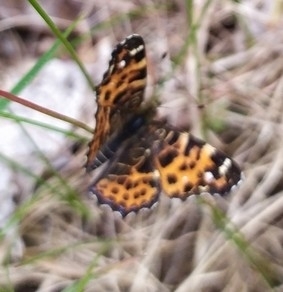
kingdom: Animalia
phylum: Arthropoda
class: Insecta
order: Lepidoptera
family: Nymphalidae
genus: Araschnia
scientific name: Araschnia levana
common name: Map butterfly
